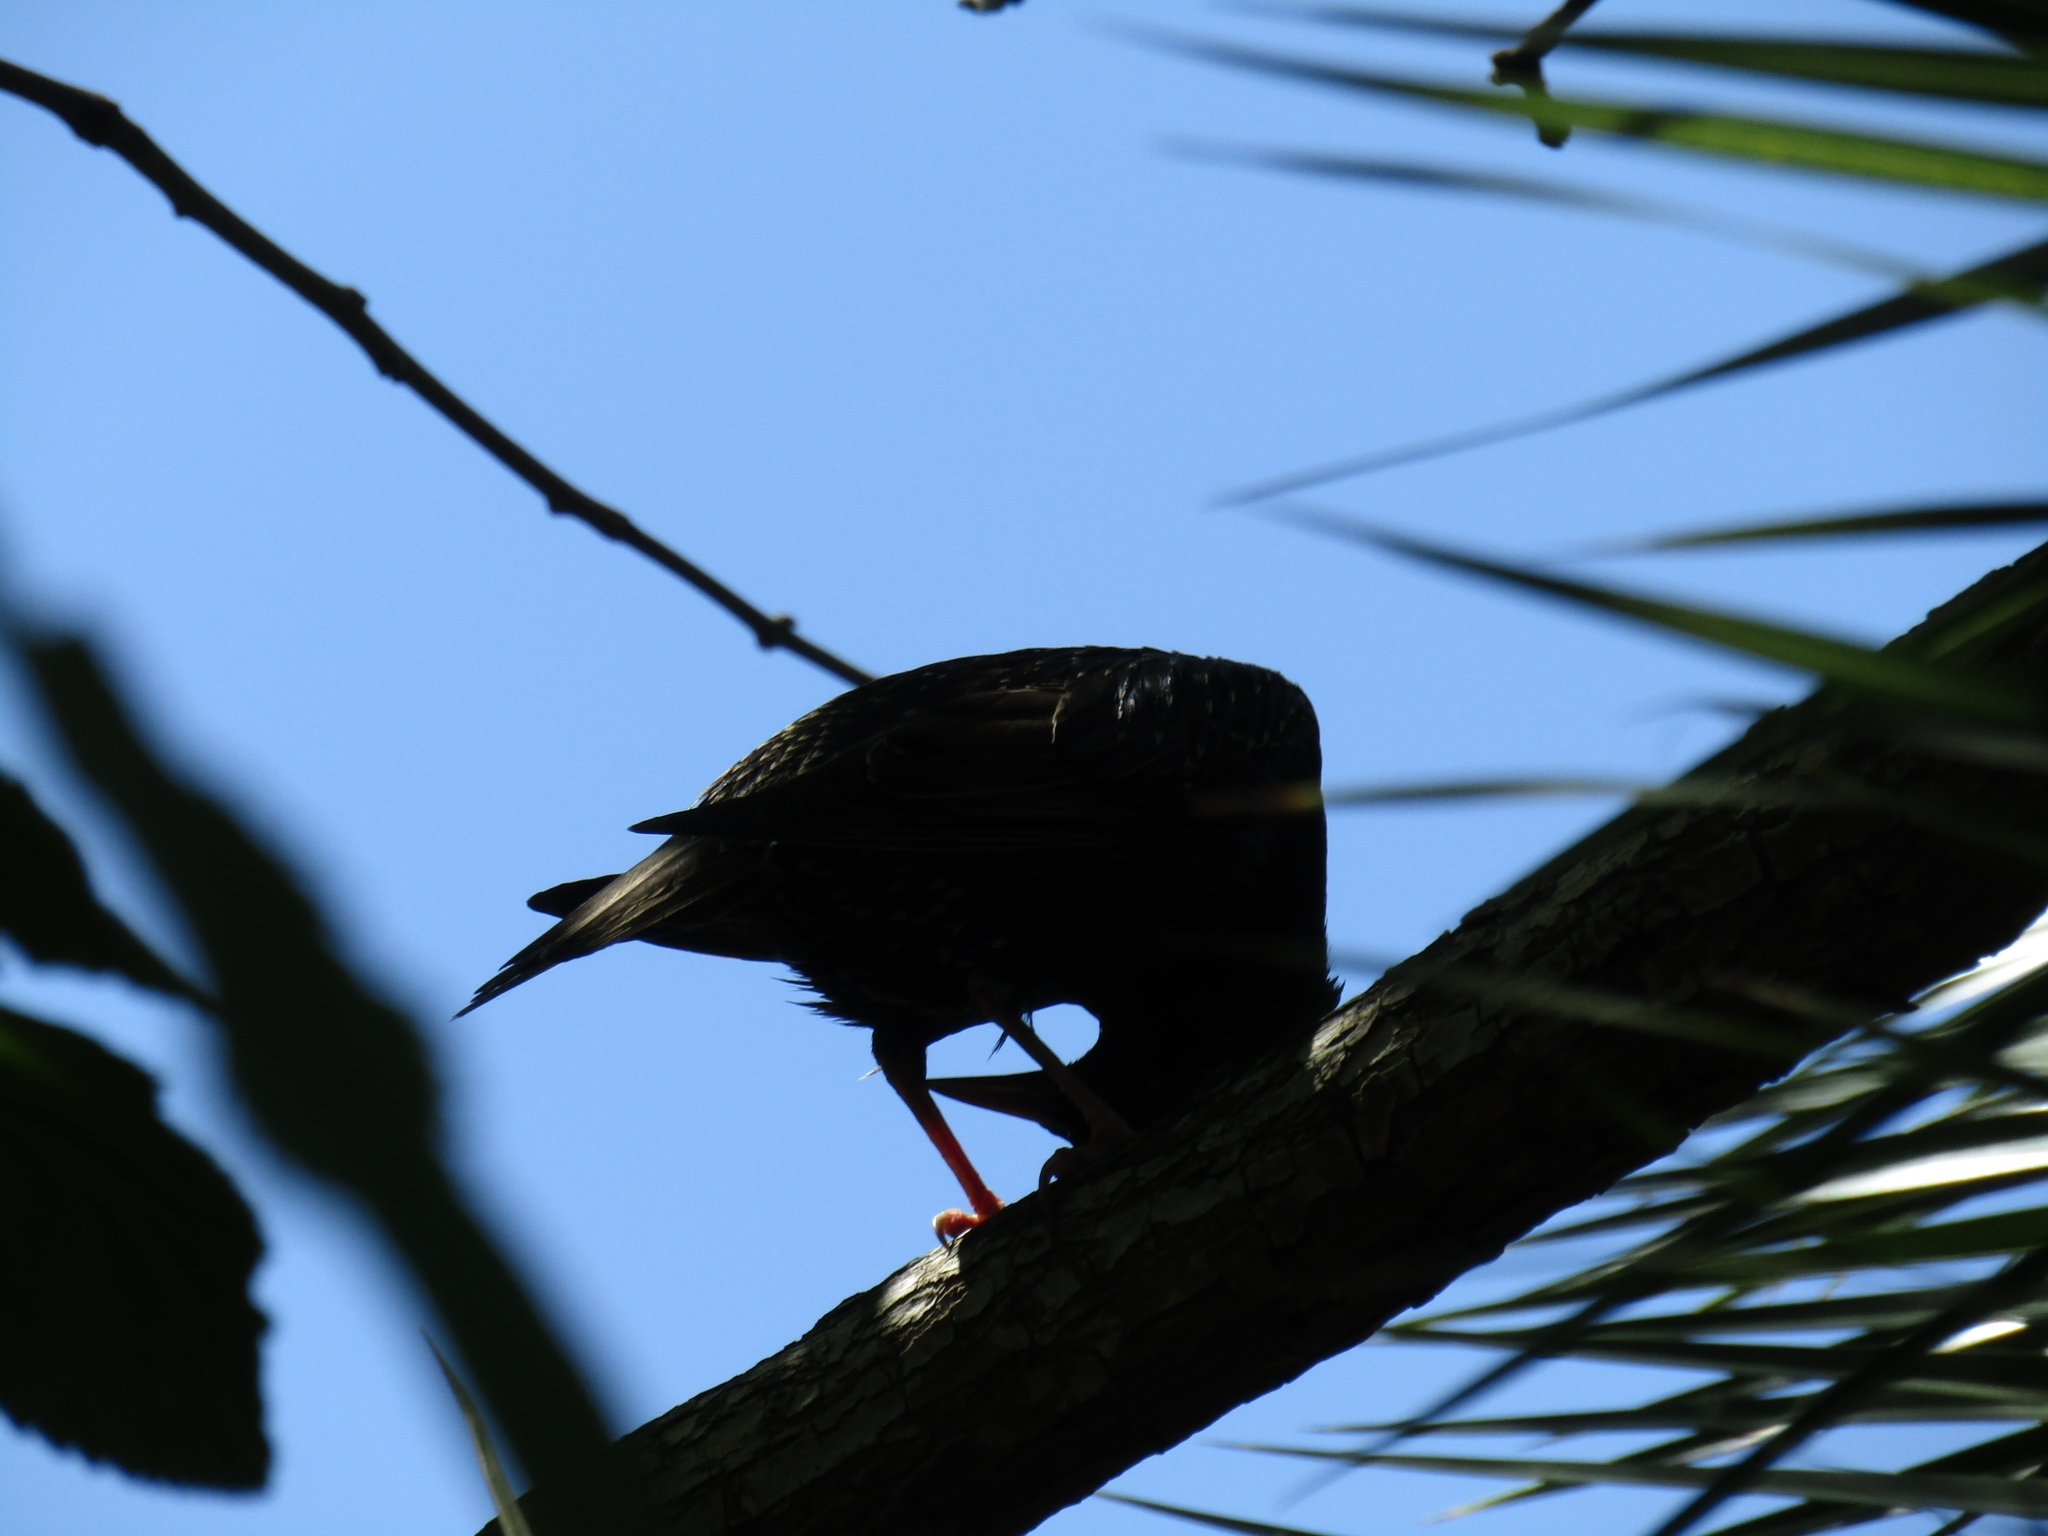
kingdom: Animalia
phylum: Chordata
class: Aves
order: Passeriformes
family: Sturnidae
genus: Sturnus
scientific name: Sturnus vulgaris
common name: Common starling
